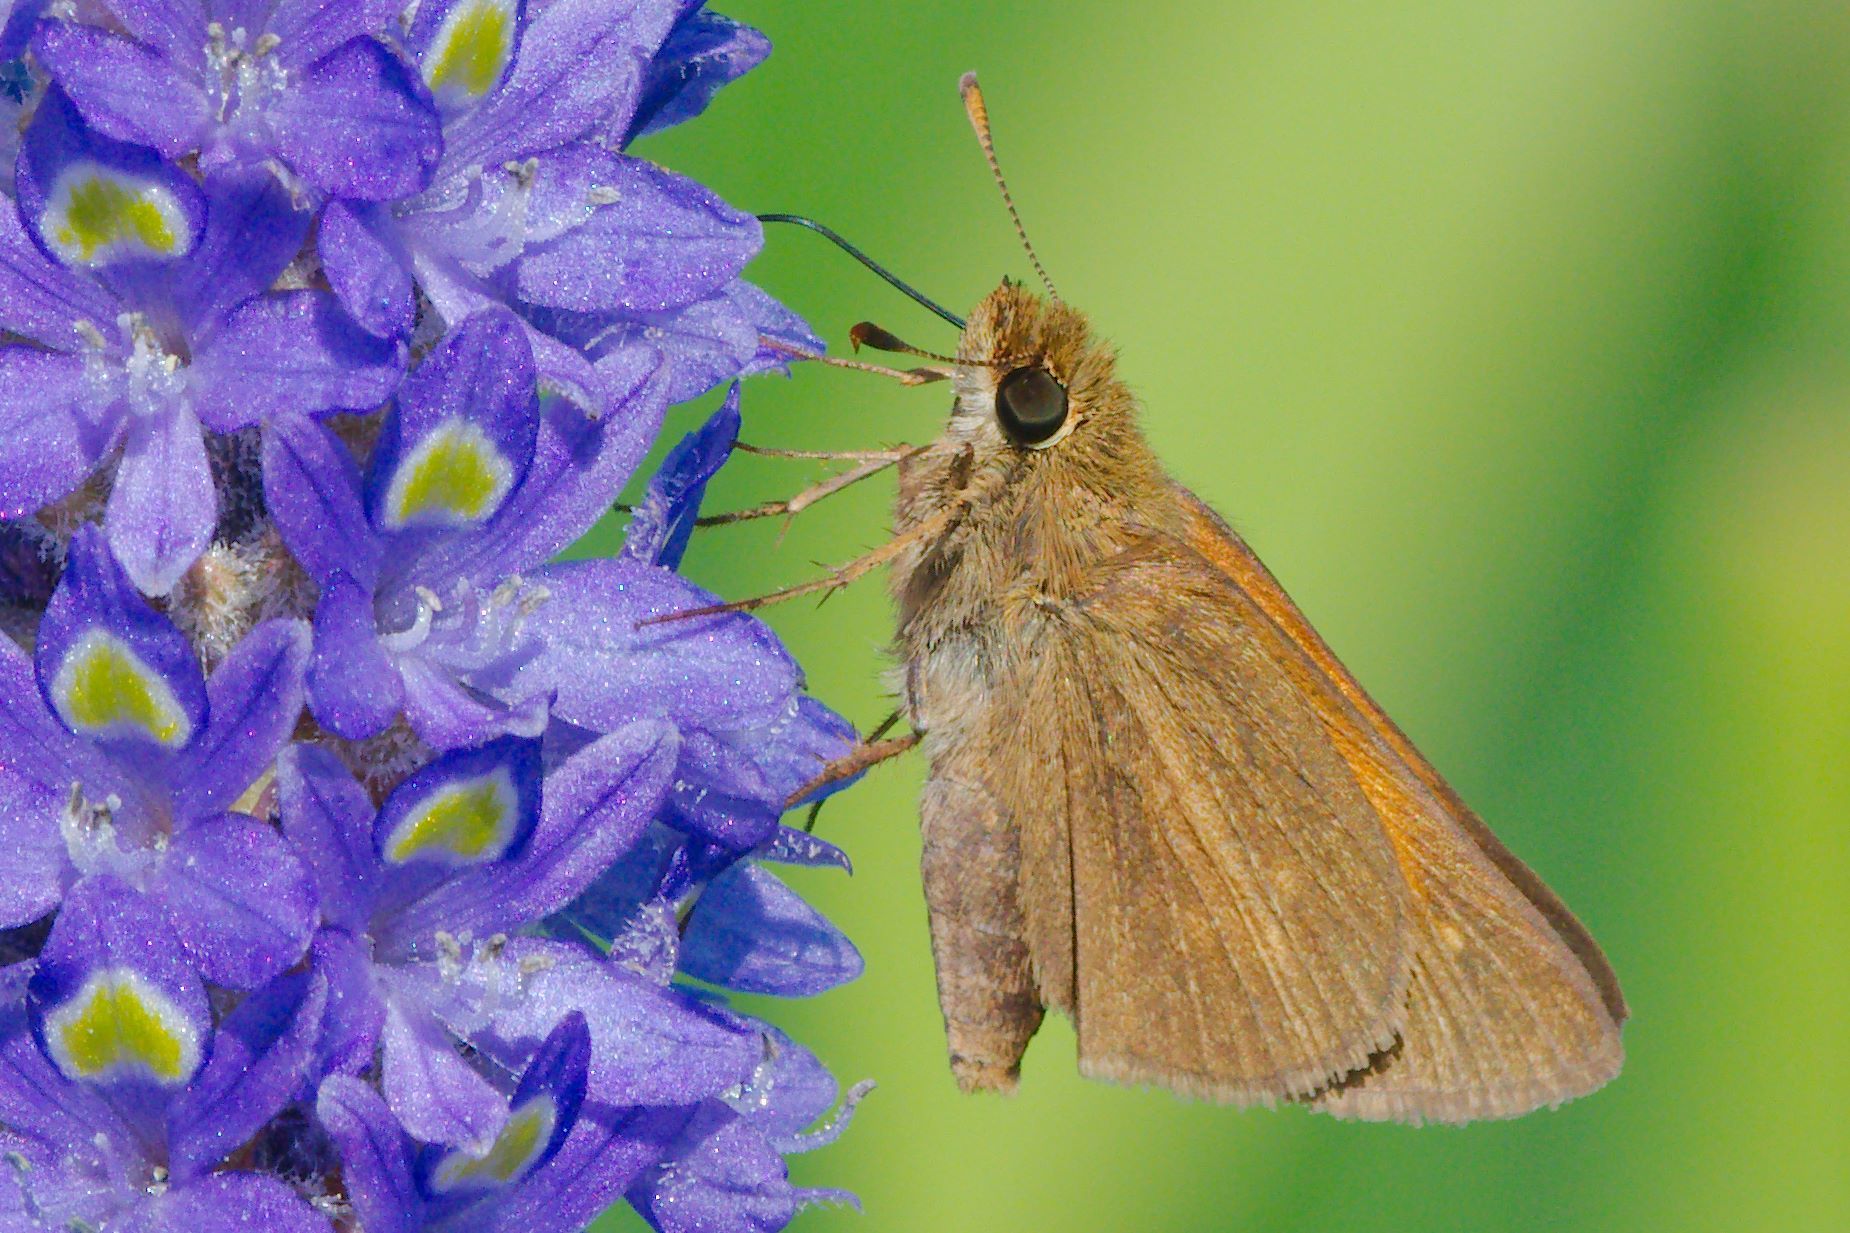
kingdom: Animalia
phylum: Arthropoda
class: Insecta
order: Lepidoptera
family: Hesperiidae
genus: Poanes
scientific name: Poanes aaroni
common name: Aaron's skipper
